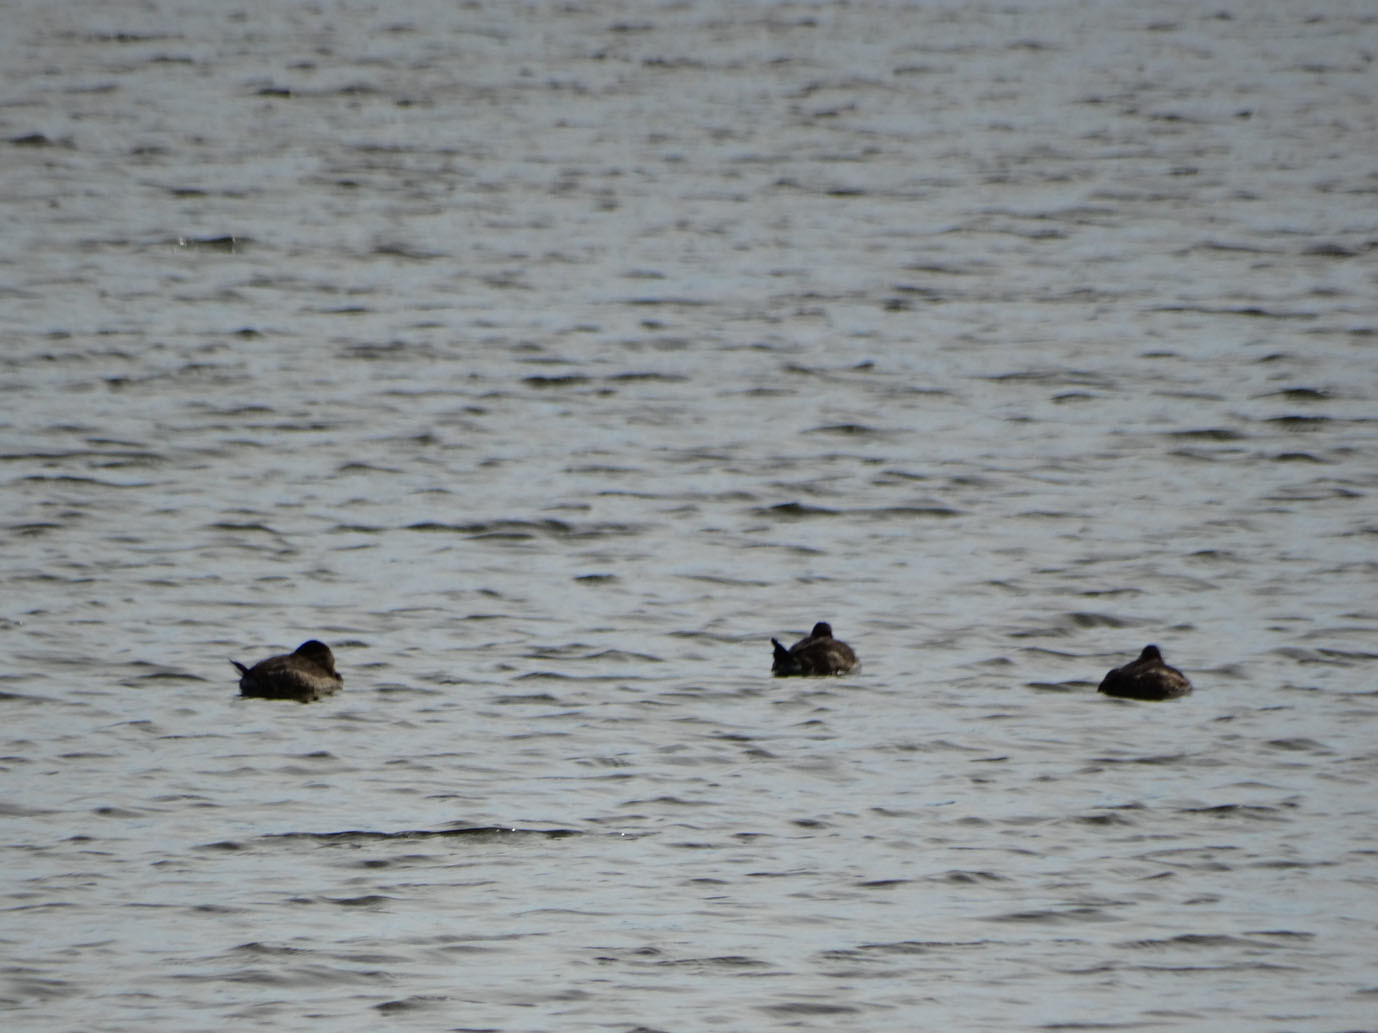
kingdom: Animalia
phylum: Chordata
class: Aves
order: Anseriformes
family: Anatidae
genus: Oxyura
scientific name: Oxyura jamaicensis
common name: Ruddy duck
